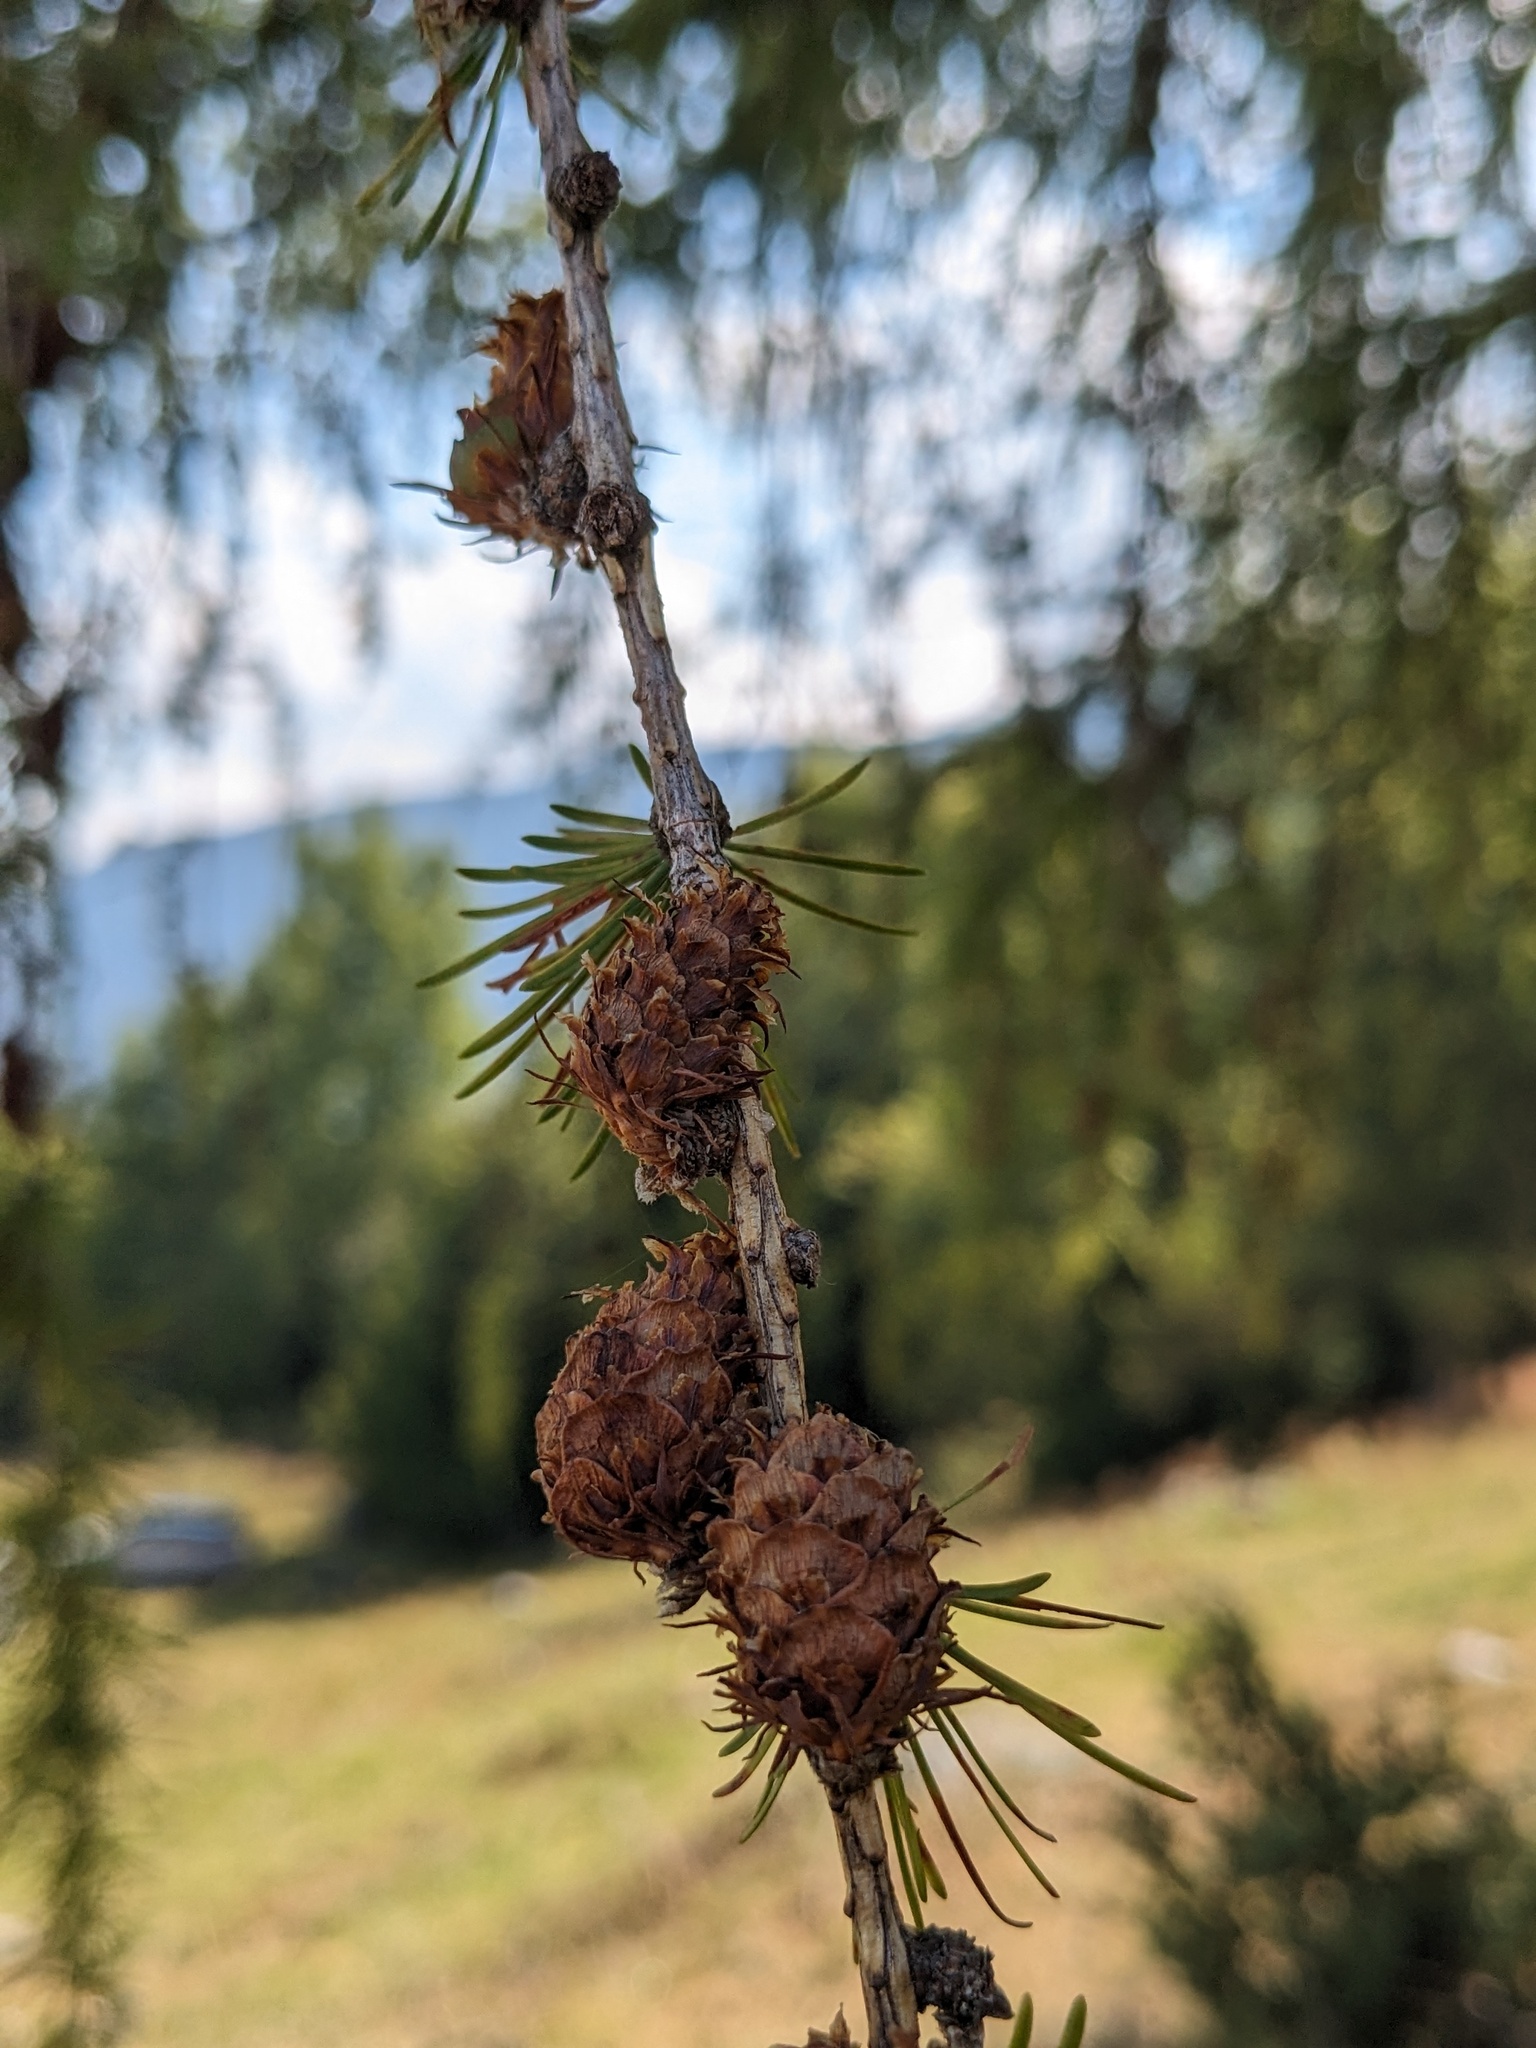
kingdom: Plantae
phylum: Tracheophyta
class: Pinopsida
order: Pinales
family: Pinaceae
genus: Larix
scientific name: Larix decidua
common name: European larch
